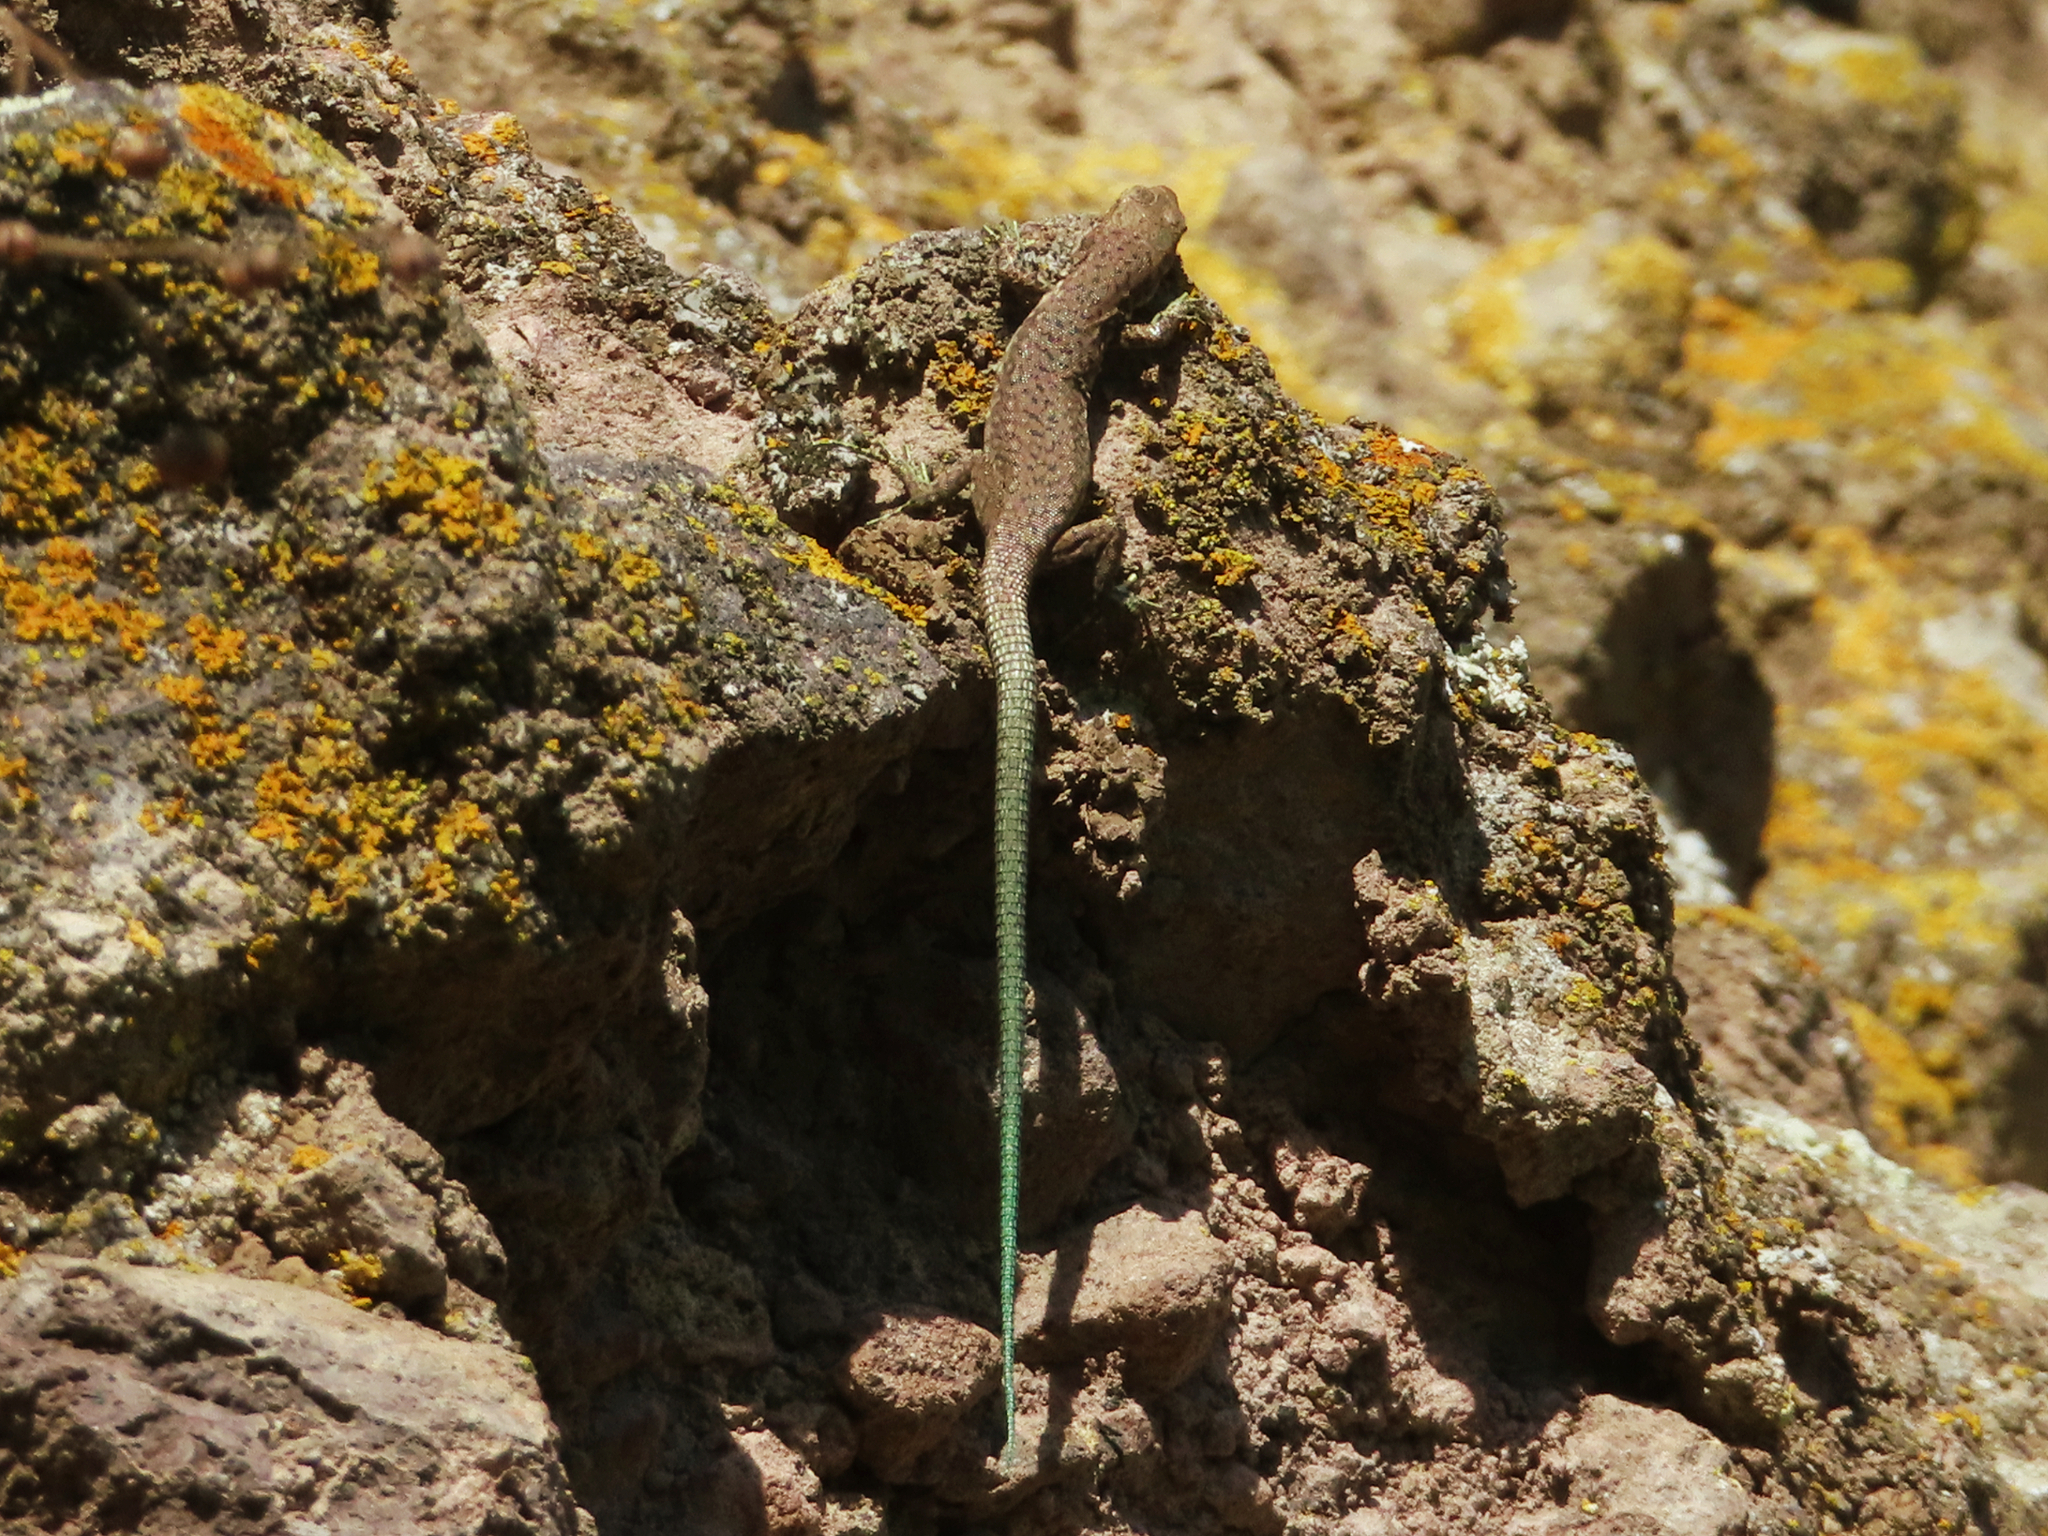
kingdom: Animalia
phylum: Chordata
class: Squamata
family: Lacertidae
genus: Darevskia
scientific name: Darevskia raddei
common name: Radde's lizard
